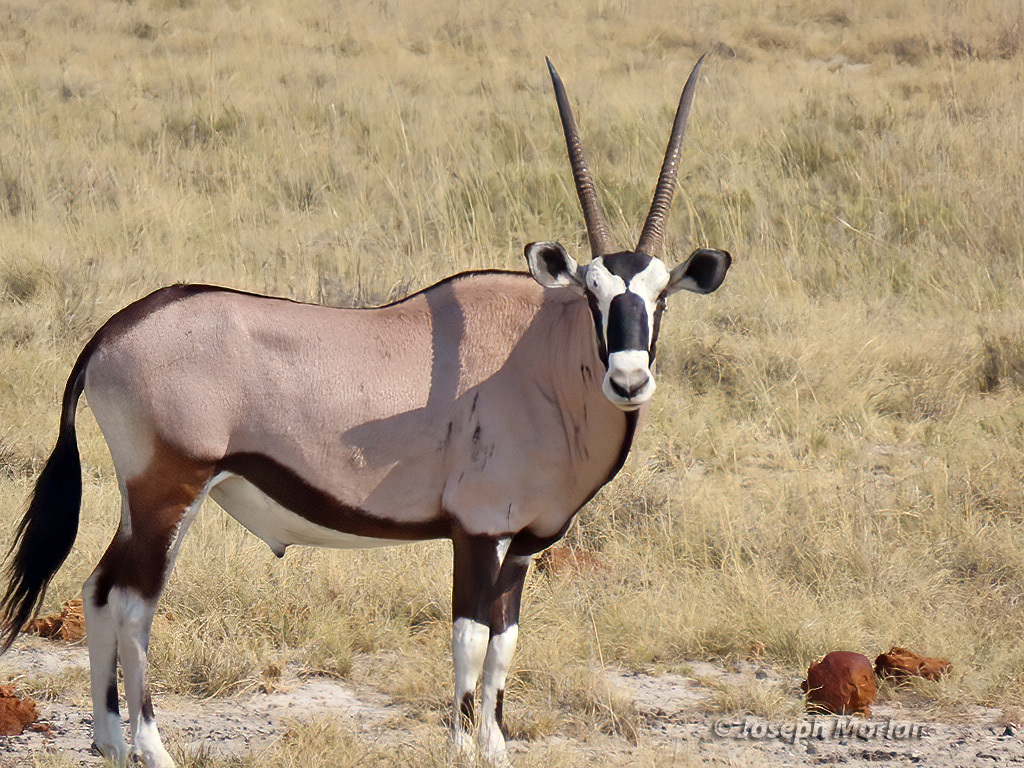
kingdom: Animalia
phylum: Chordata
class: Mammalia
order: Artiodactyla
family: Bovidae
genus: Oryx
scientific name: Oryx gazella
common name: Gemsbok
